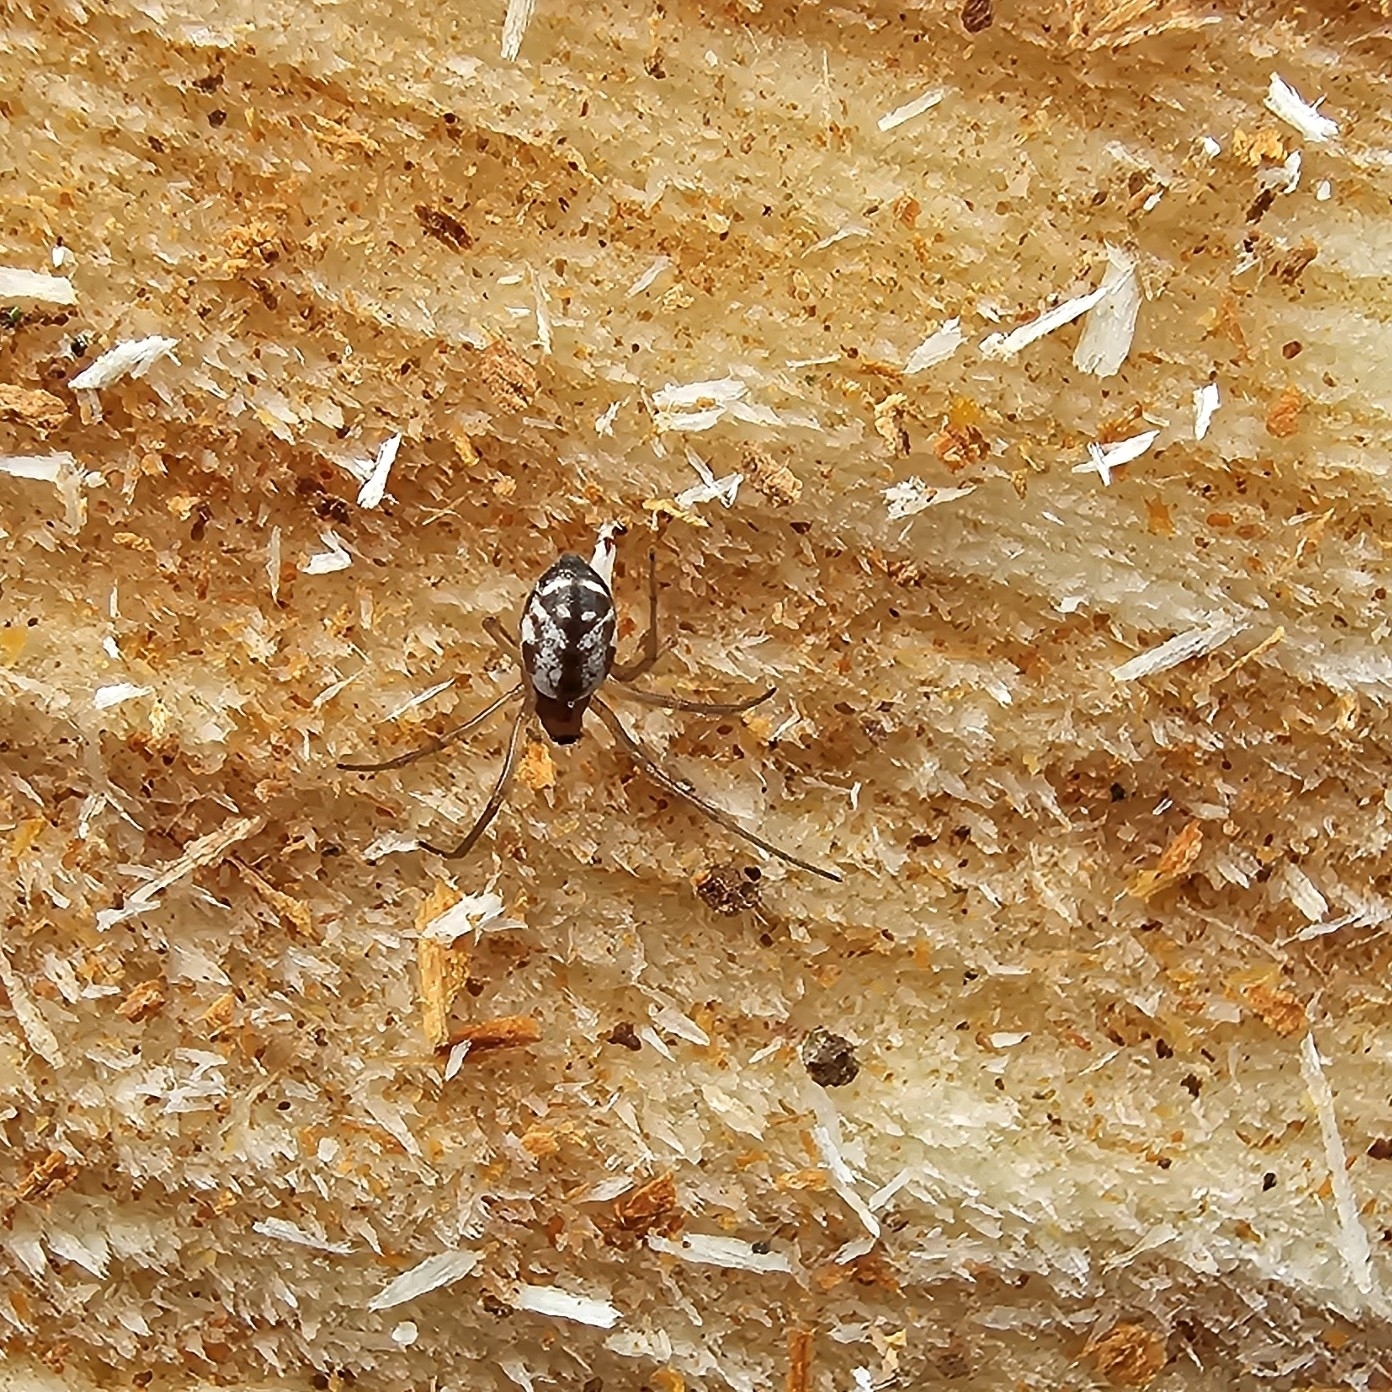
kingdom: Animalia
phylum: Arthropoda
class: Arachnida
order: Araneae
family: Linyphiidae
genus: Microlinyphia
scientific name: Microlinyphia pusilla
